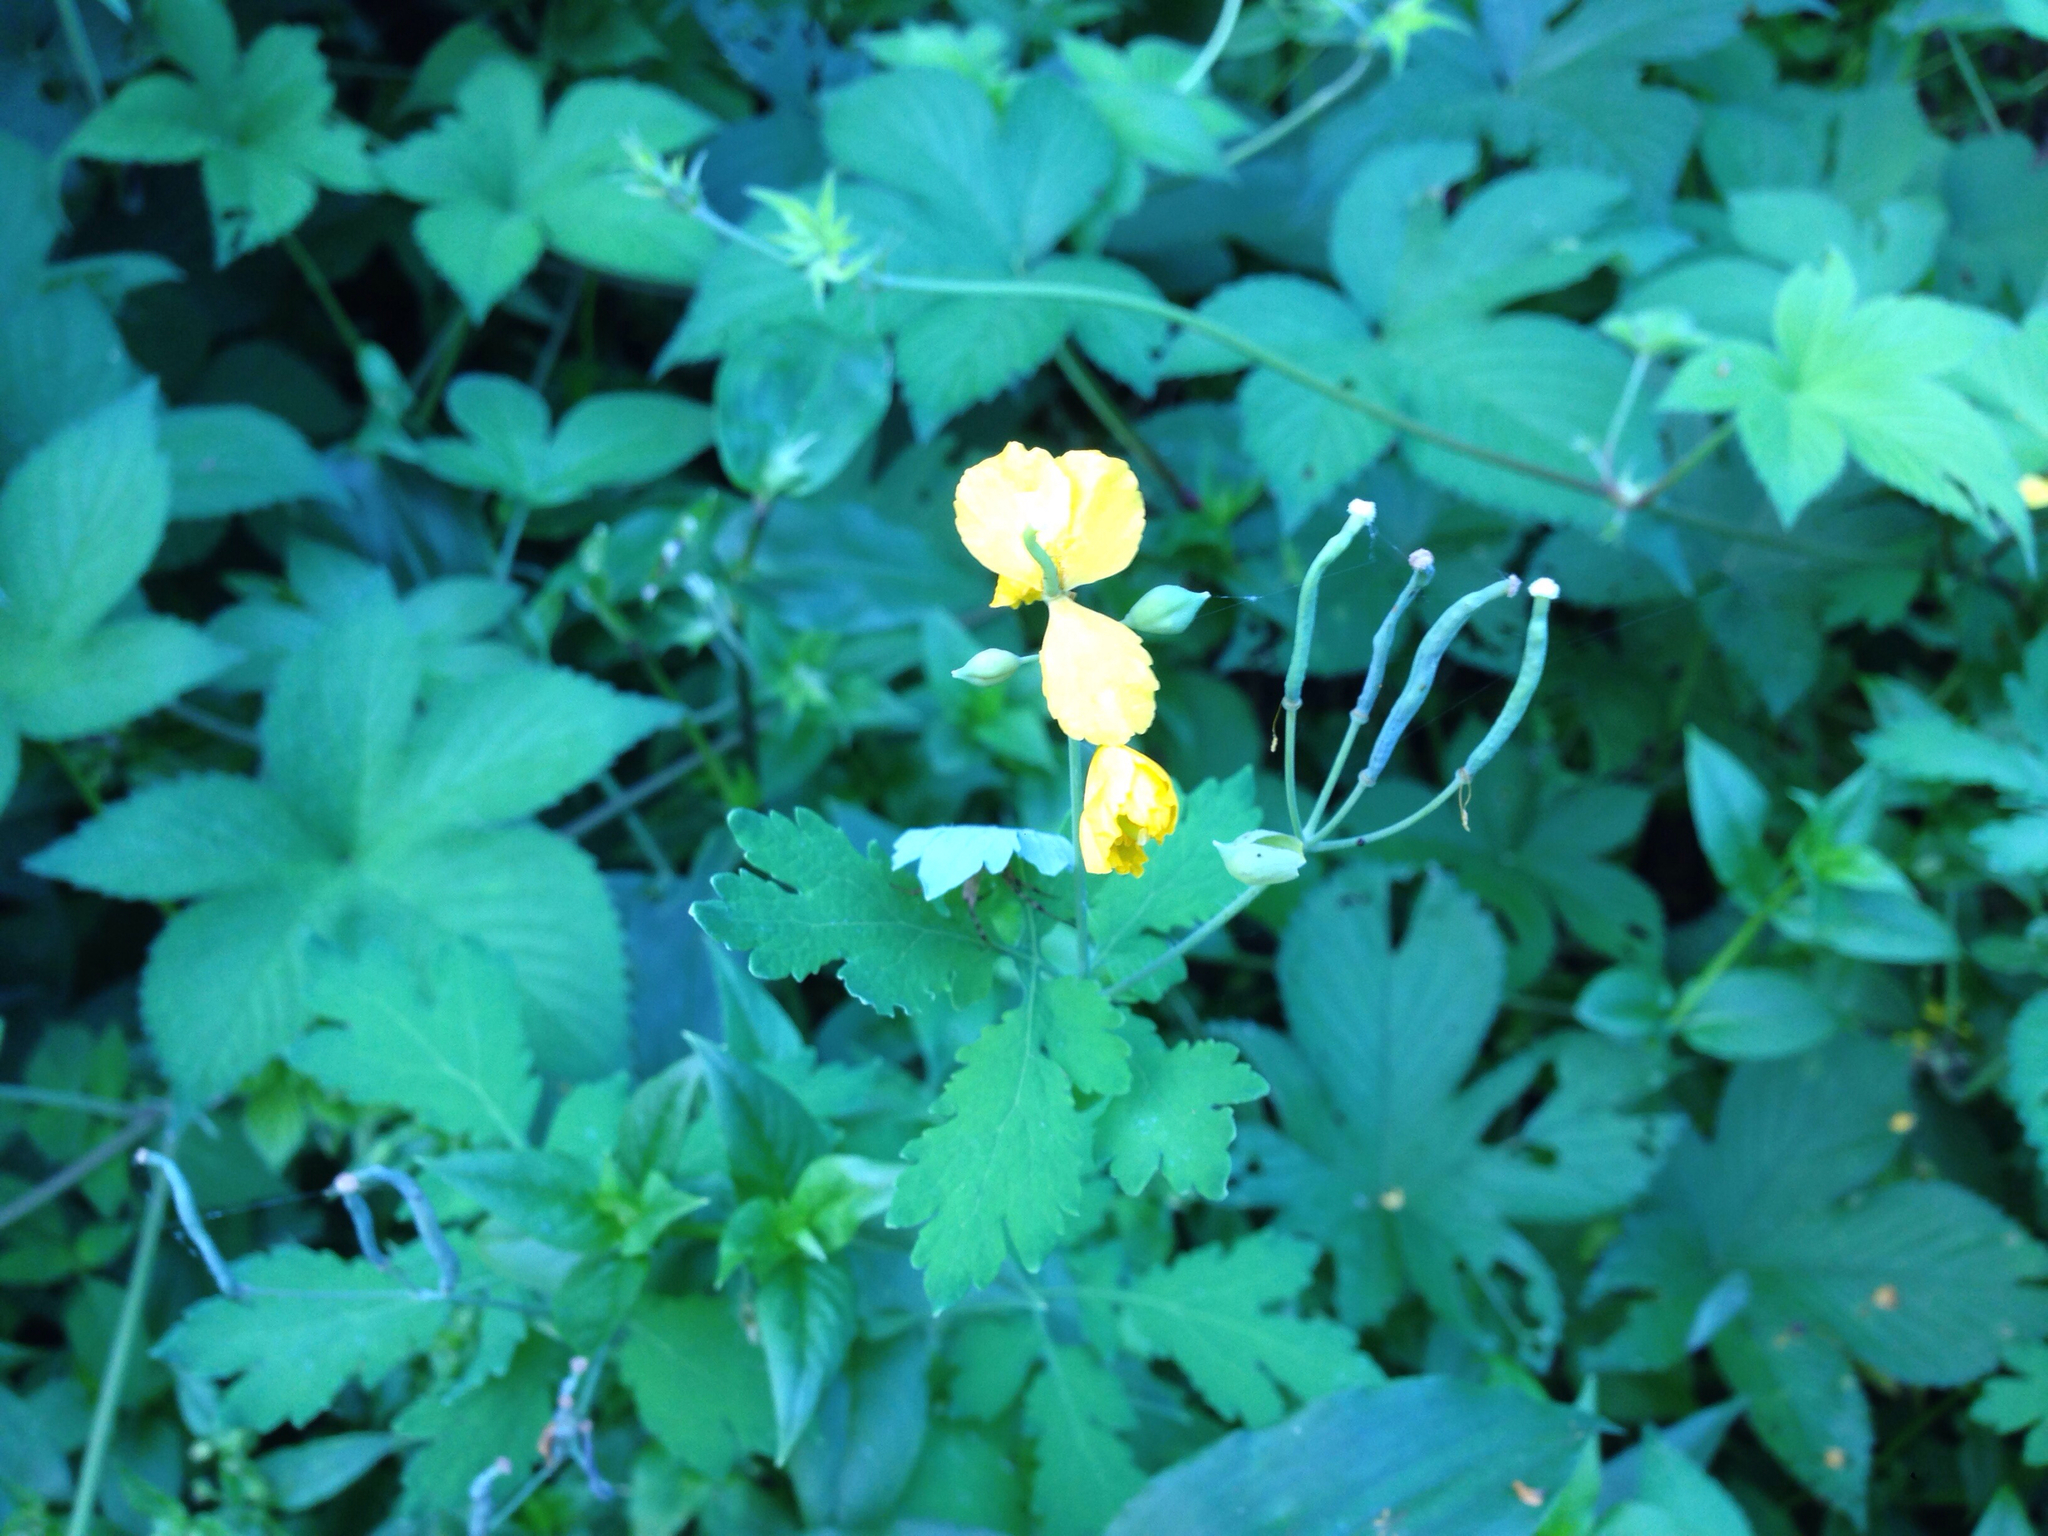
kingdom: Plantae
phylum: Tracheophyta
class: Magnoliopsida
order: Ranunculales
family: Papaveraceae
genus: Chelidonium
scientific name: Chelidonium majus
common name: Greater celandine
